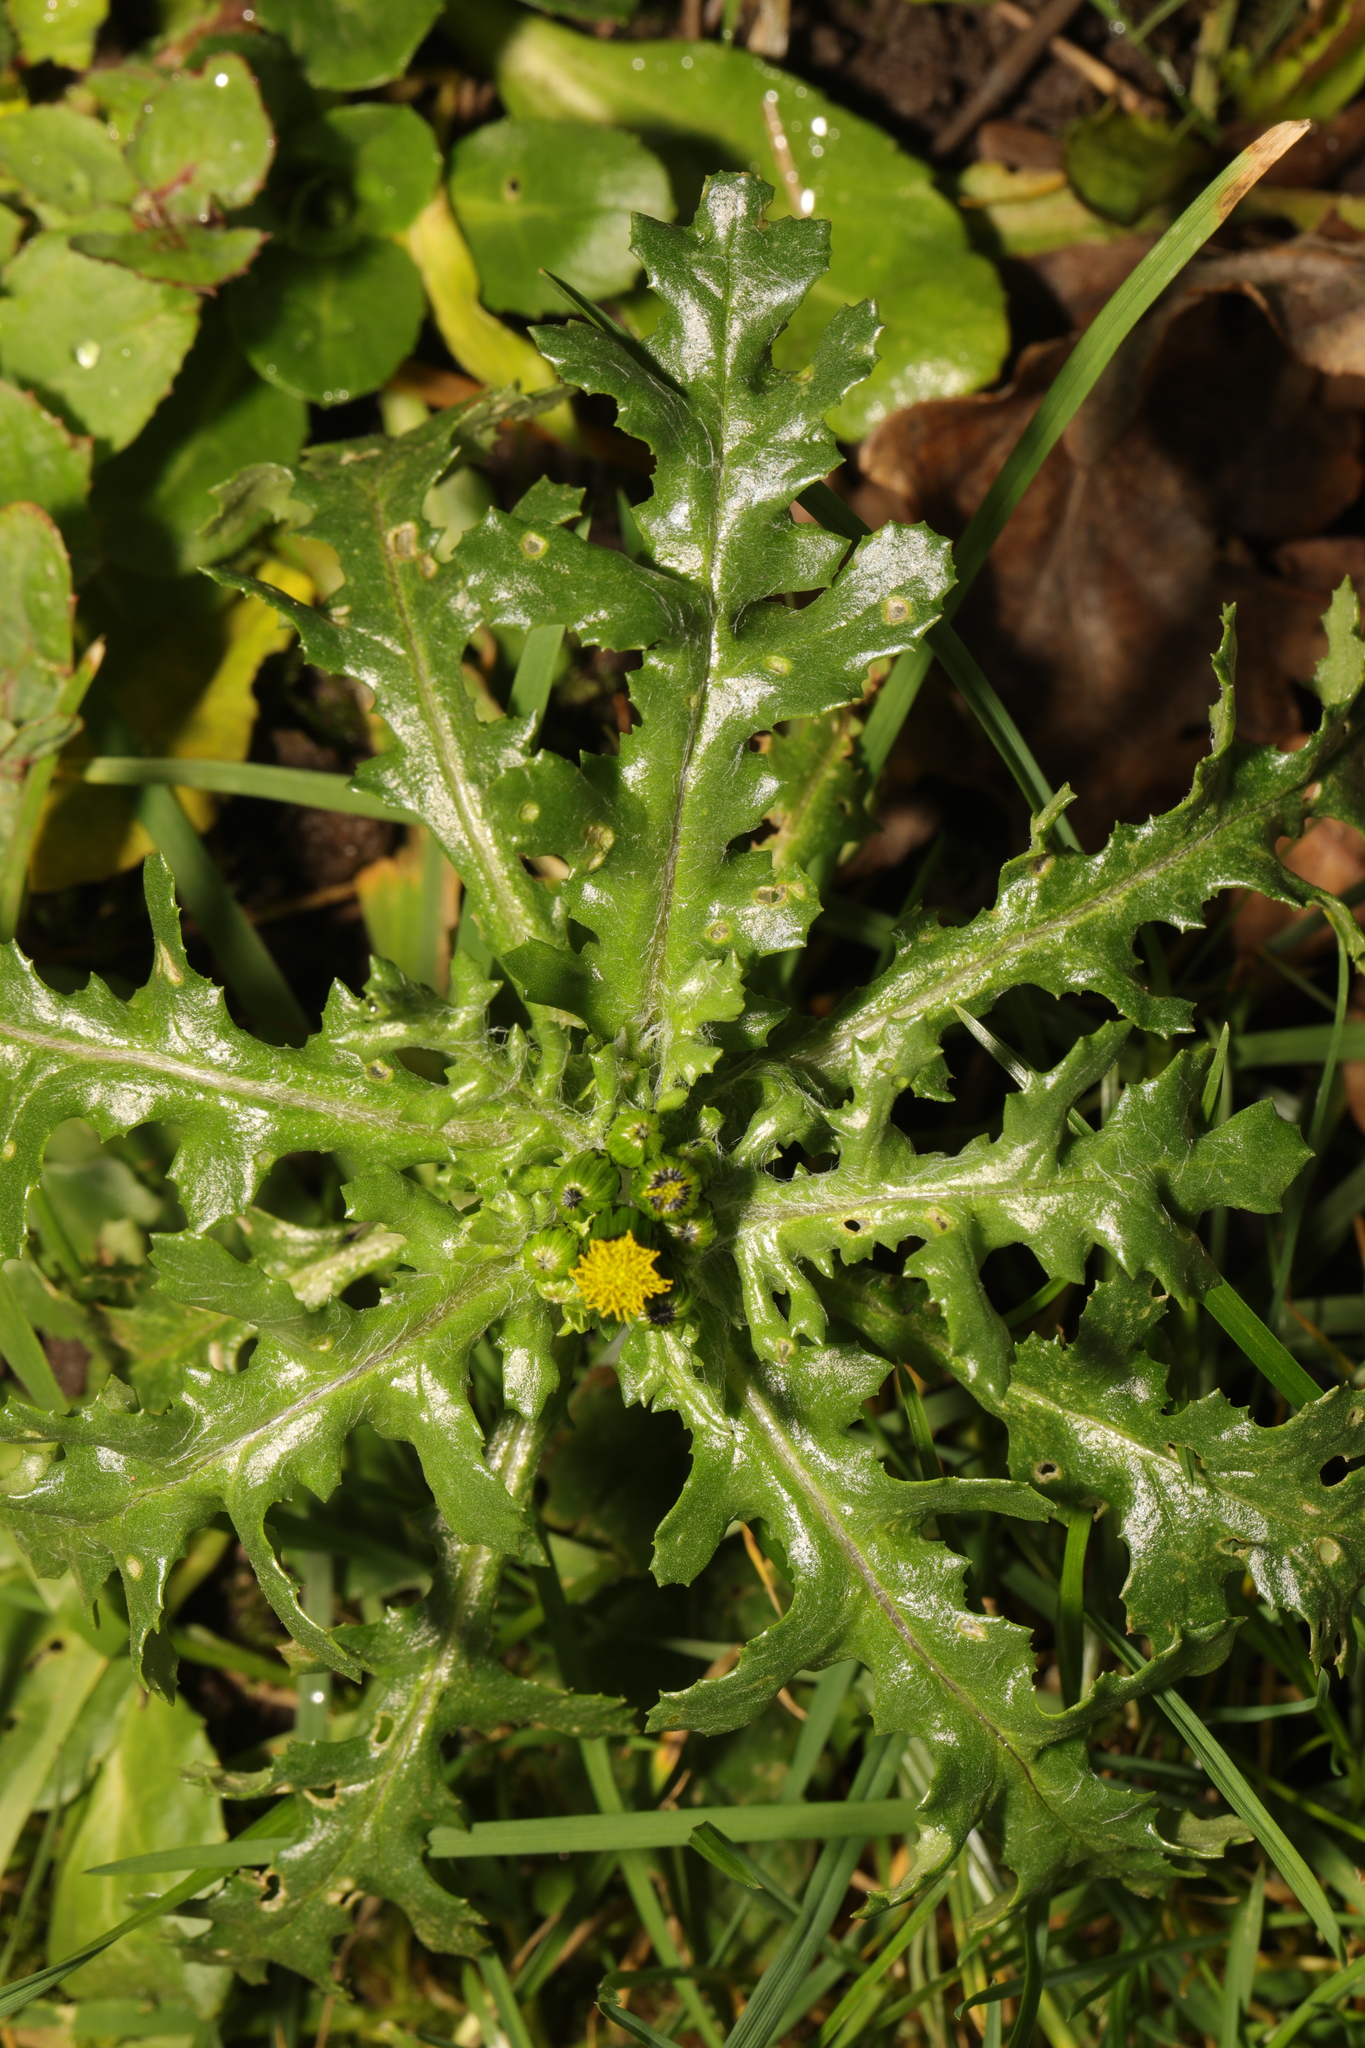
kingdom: Plantae
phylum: Tracheophyta
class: Magnoliopsida
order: Asterales
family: Asteraceae
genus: Senecio
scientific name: Senecio vulgaris
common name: Old-man-in-the-spring
